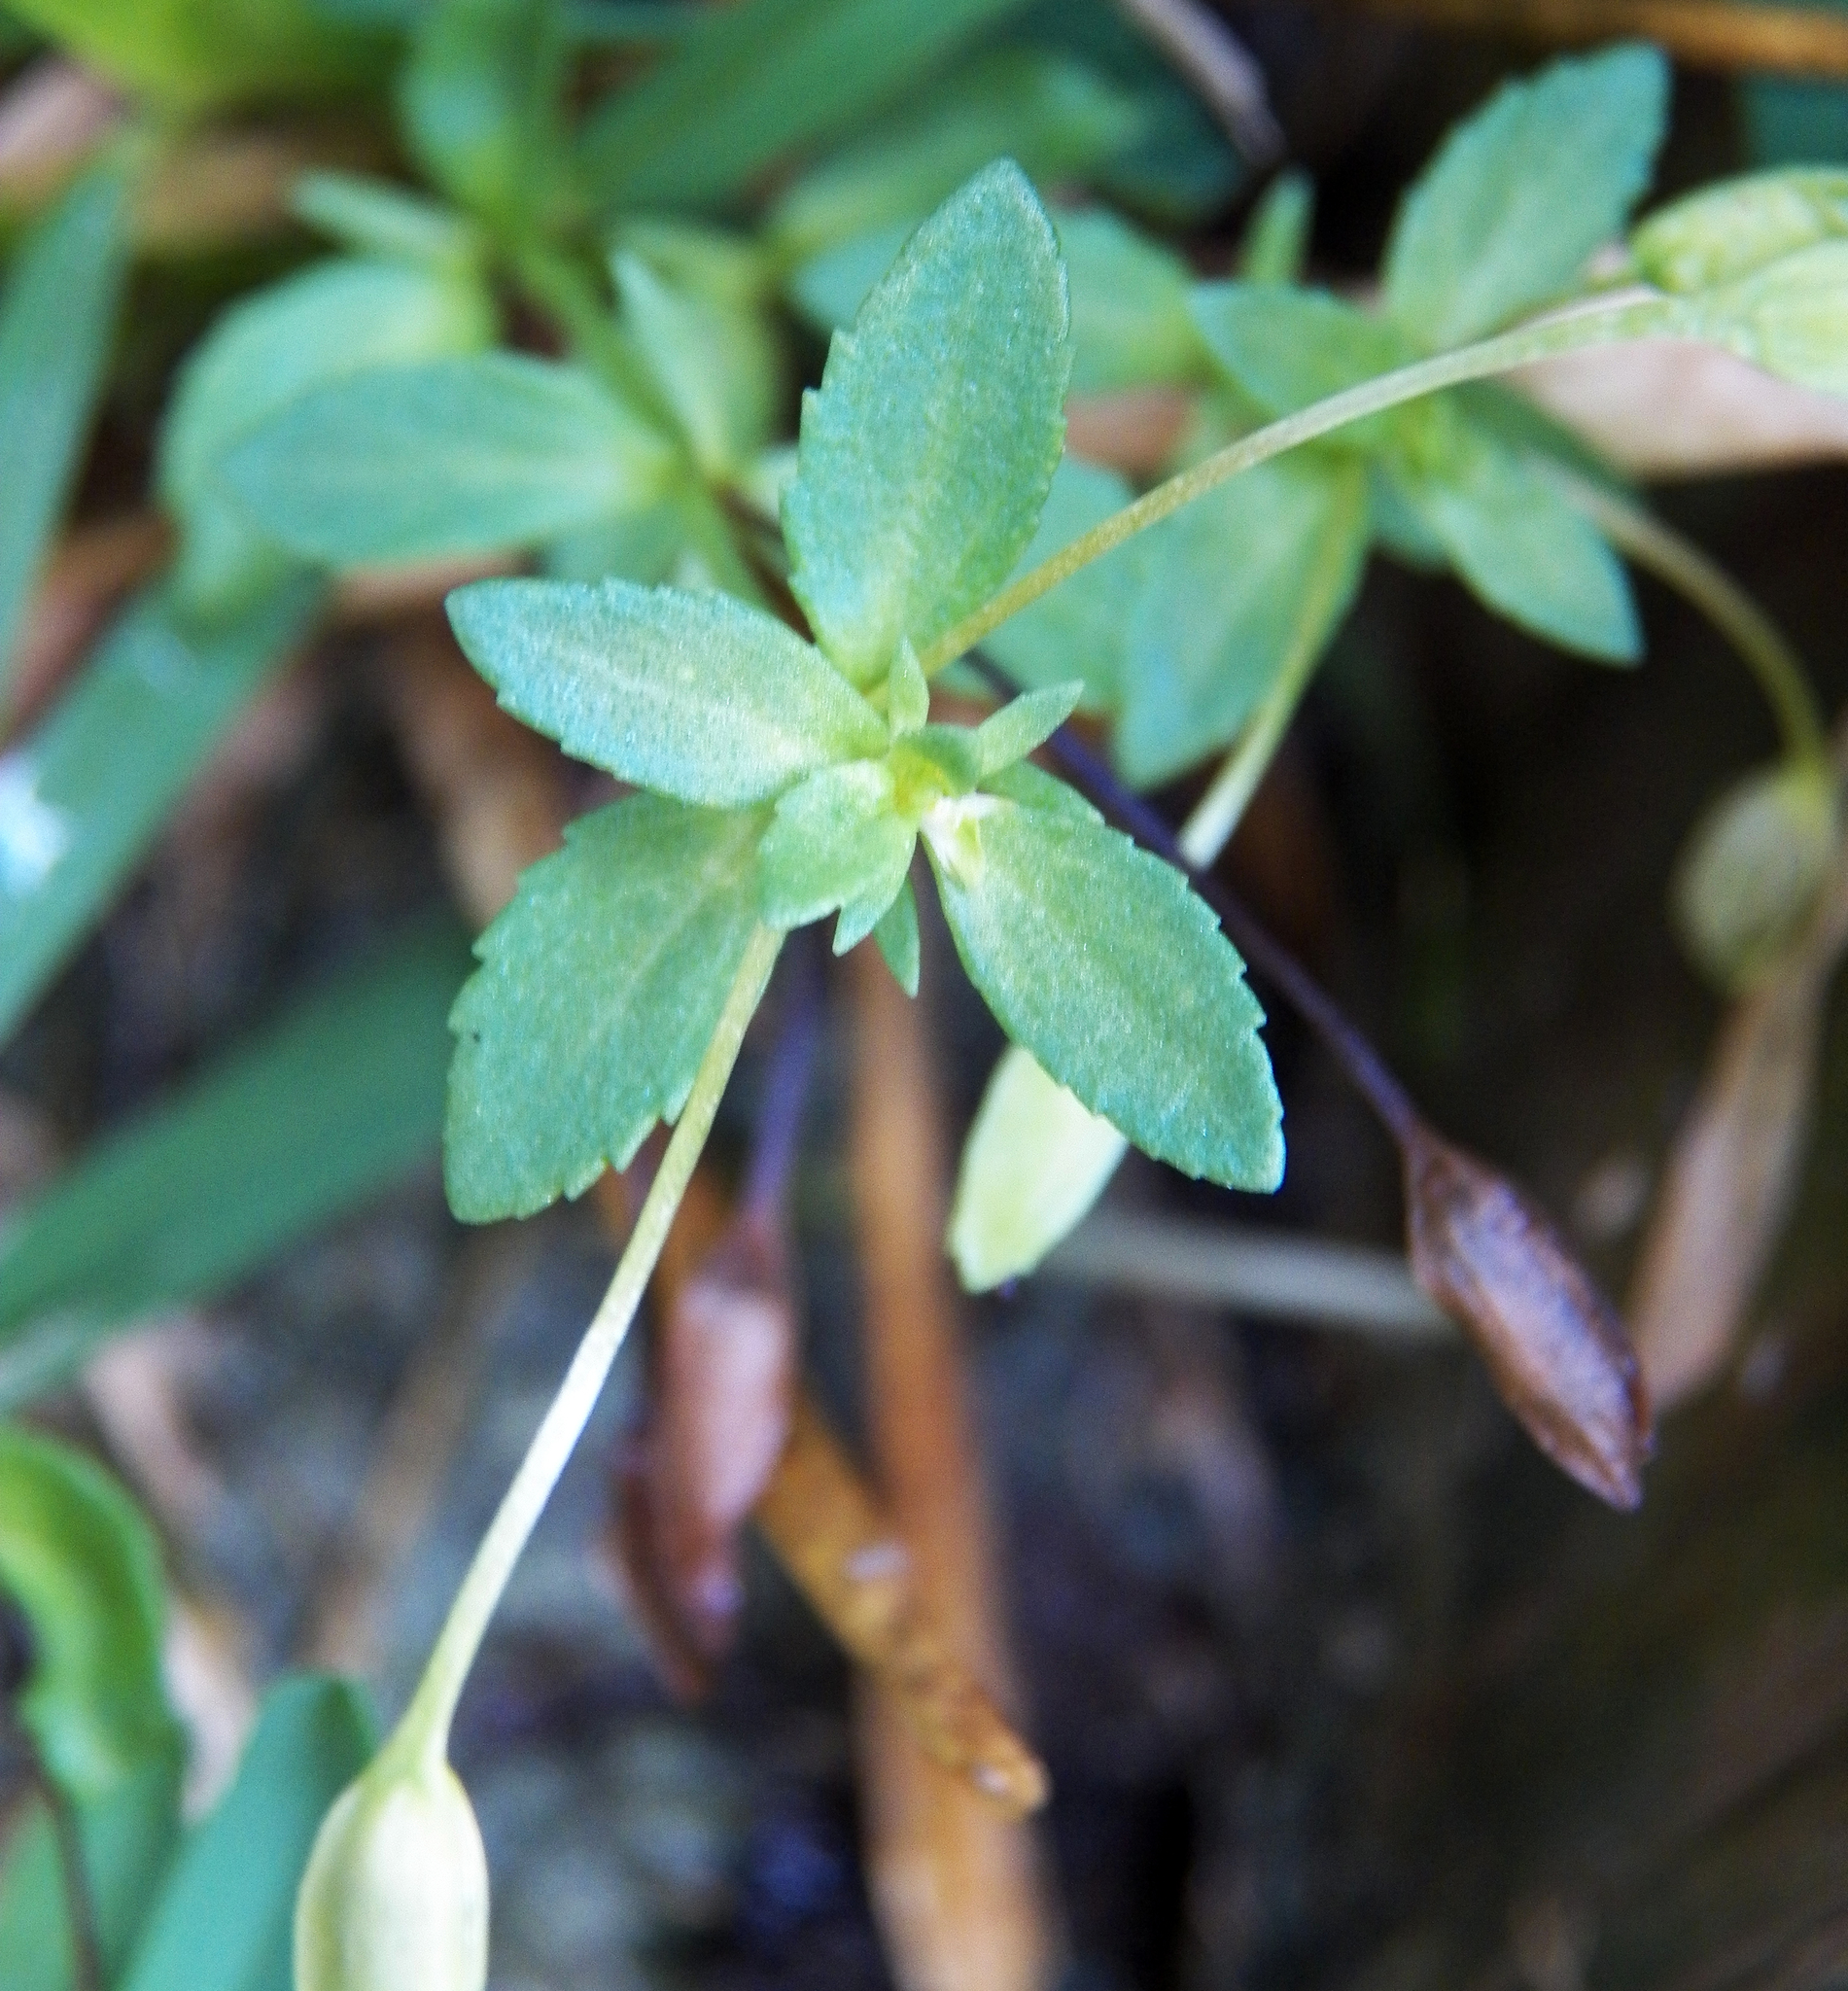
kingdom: Plantae
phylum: Tracheophyta
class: Magnoliopsida
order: Lamiales
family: Plantaginaceae
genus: Mecardonia
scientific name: Mecardonia procumbens
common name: Baby jump-up
